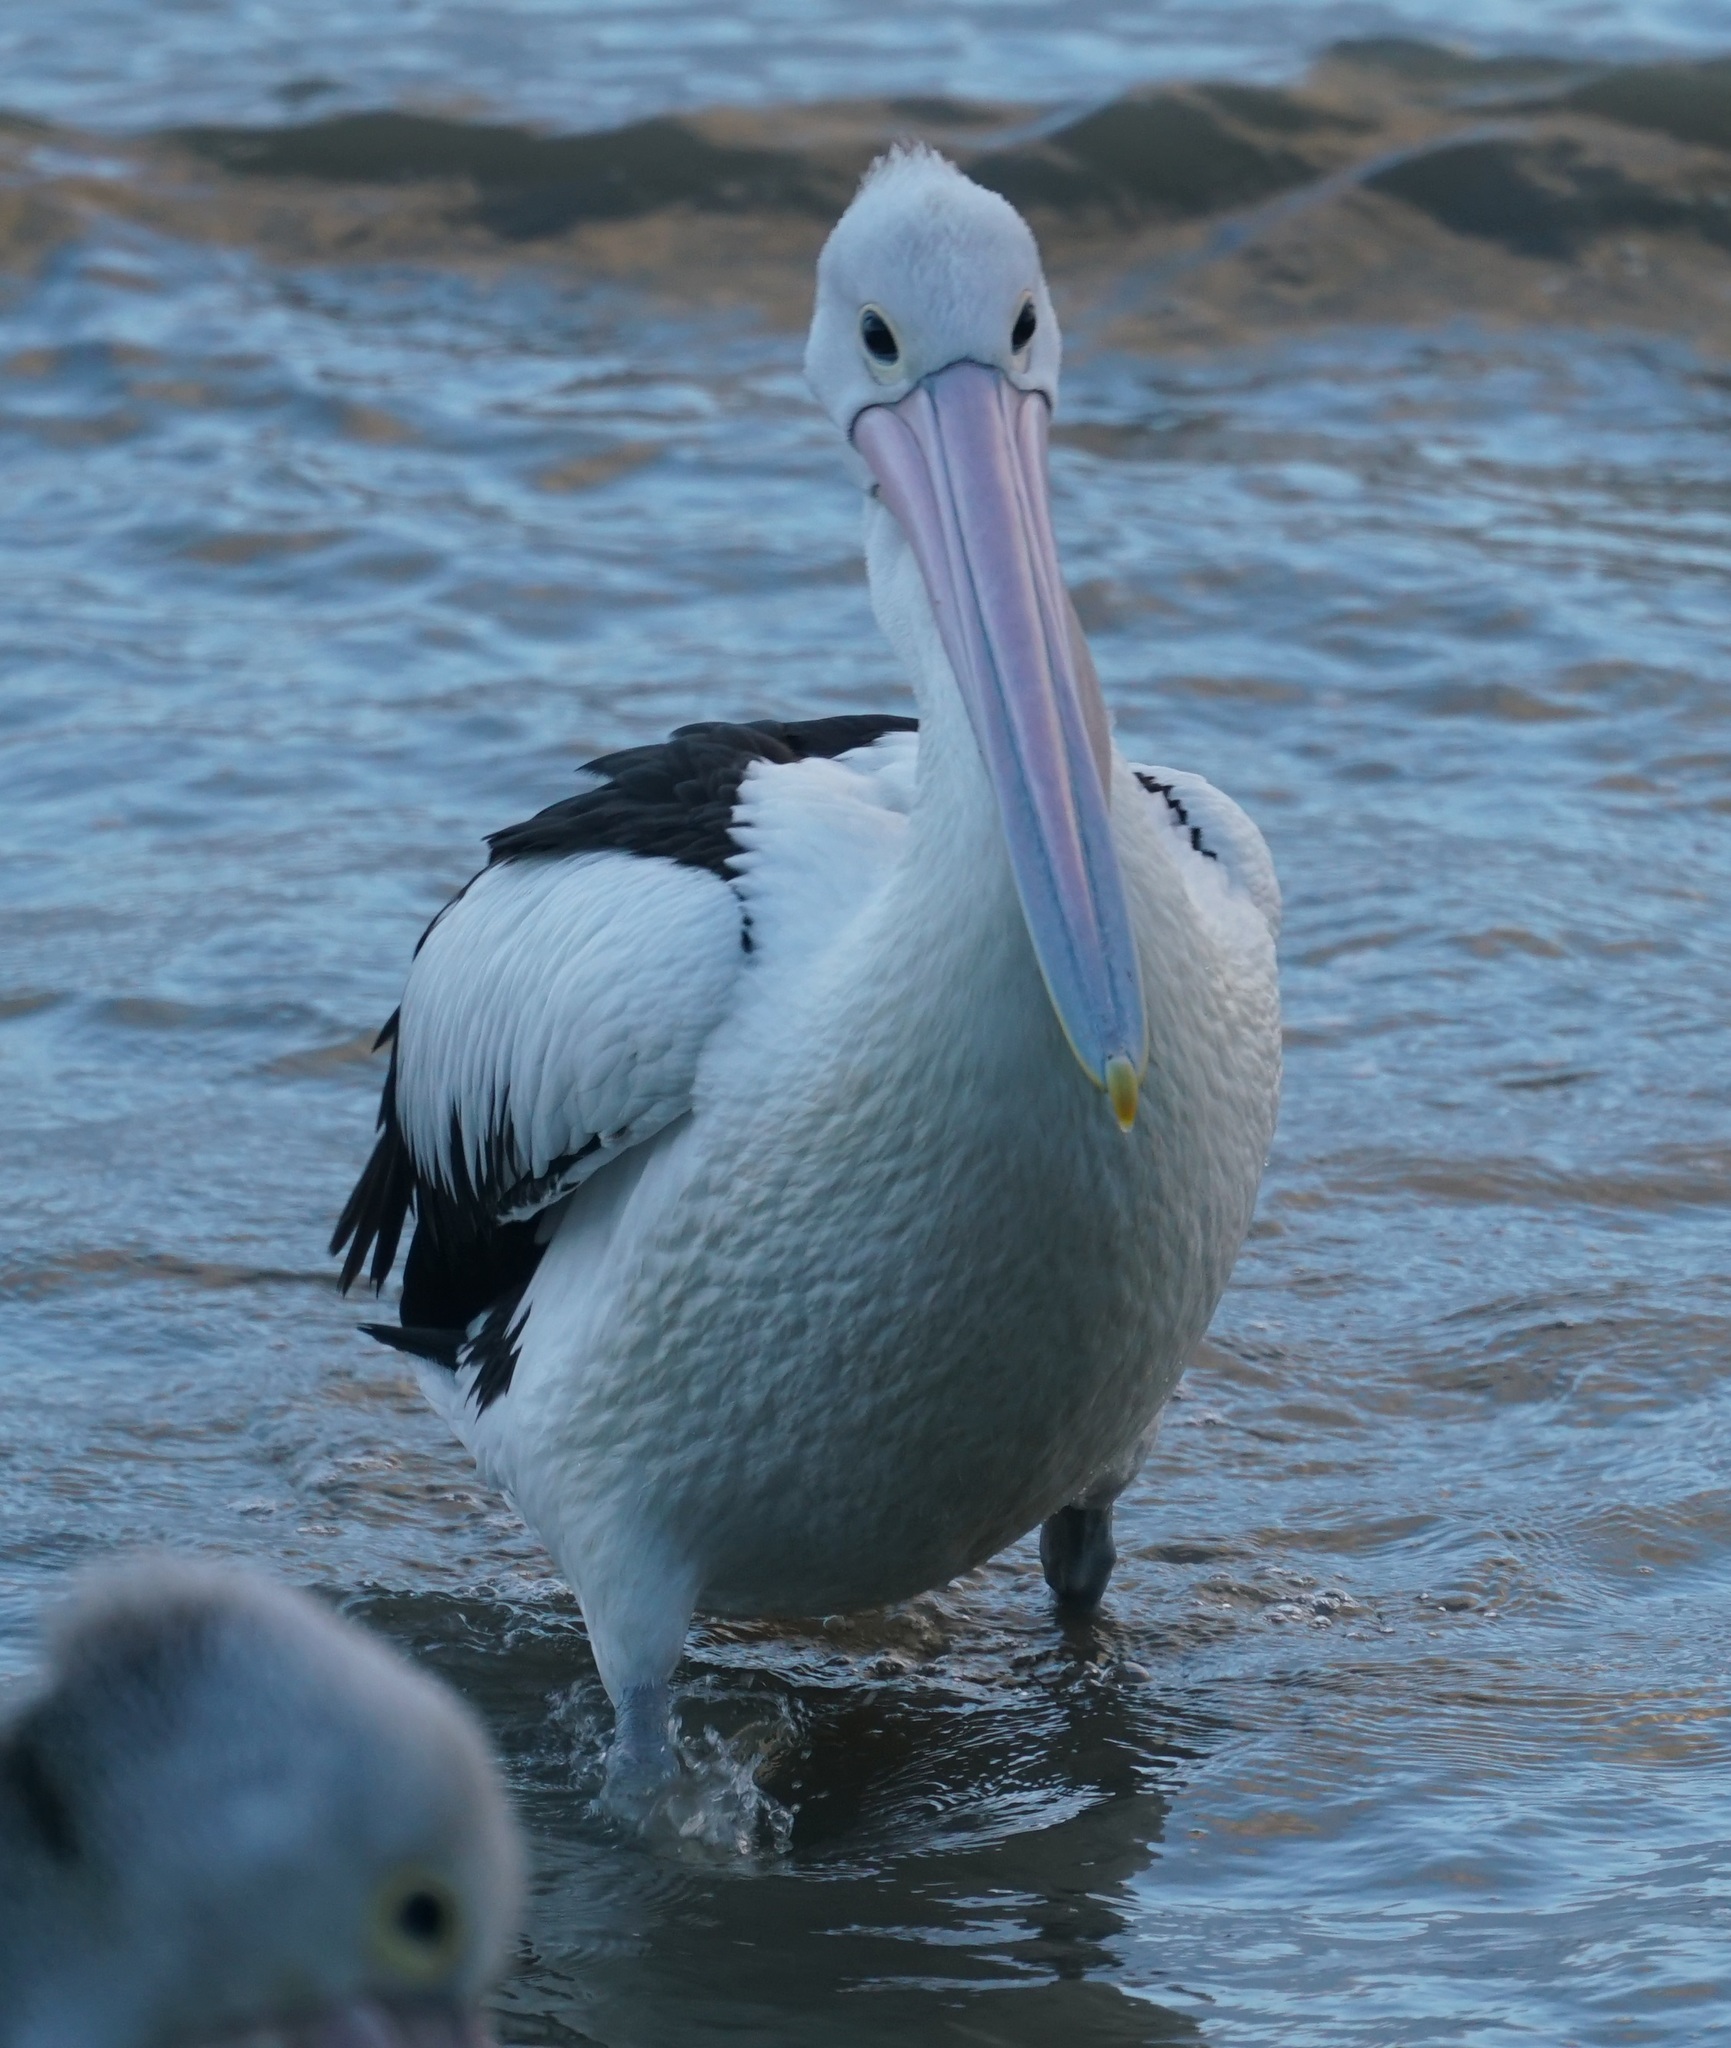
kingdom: Animalia
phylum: Chordata
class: Aves
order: Pelecaniformes
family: Pelecanidae
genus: Pelecanus
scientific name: Pelecanus conspicillatus
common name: Australian pelican
